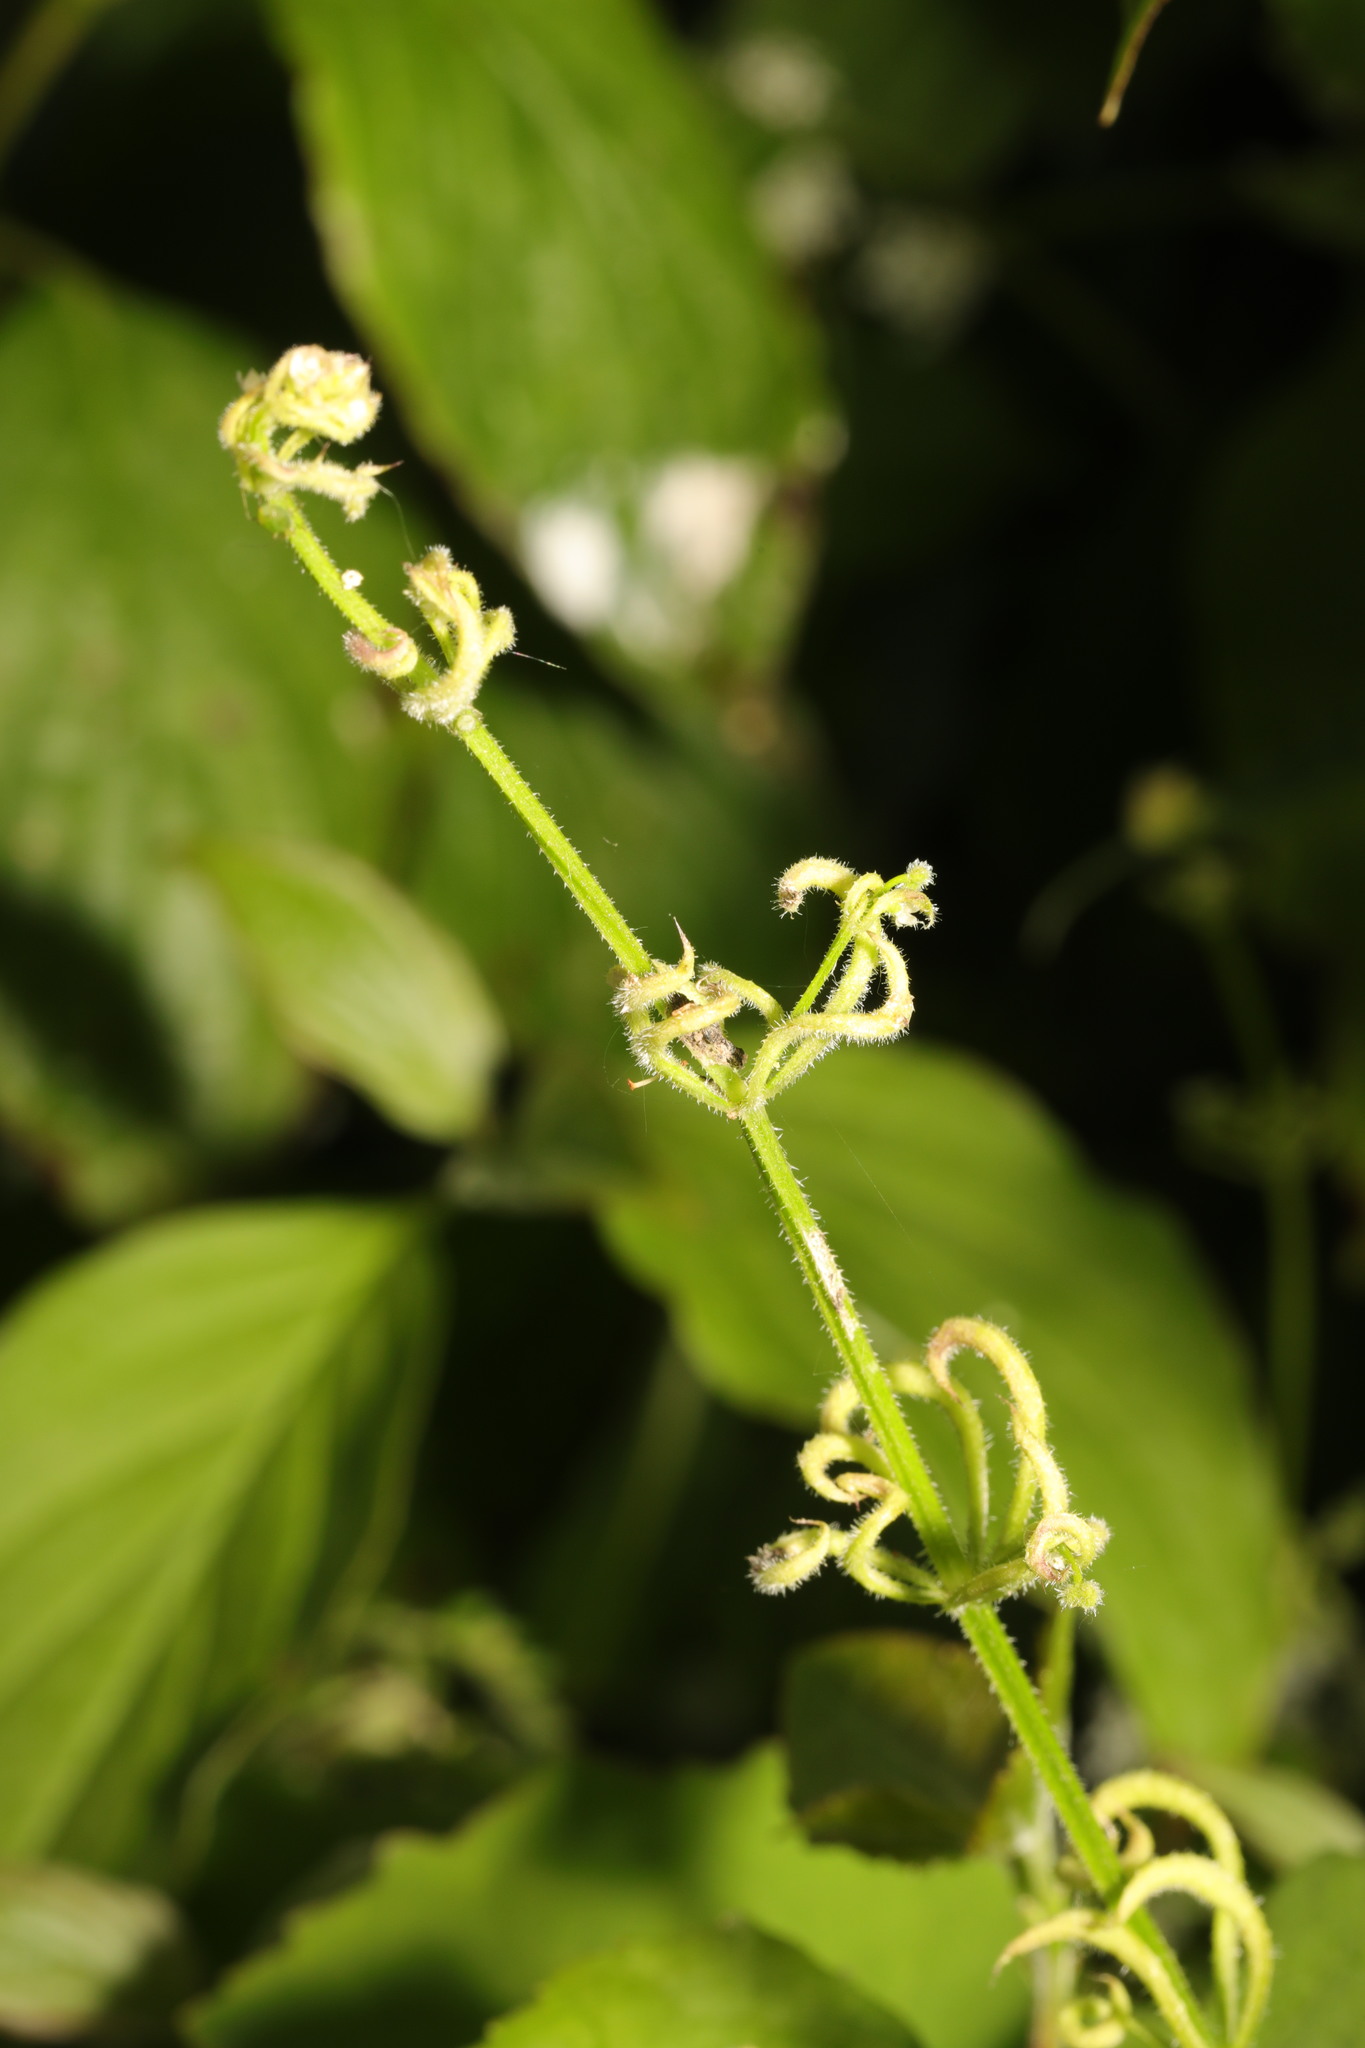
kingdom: Animalia
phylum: Arthropoda
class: Arachnida
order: Trombidiformes
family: Eriophyidae
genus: Cecidophyes
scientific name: Cecidophyes rouhollahi
